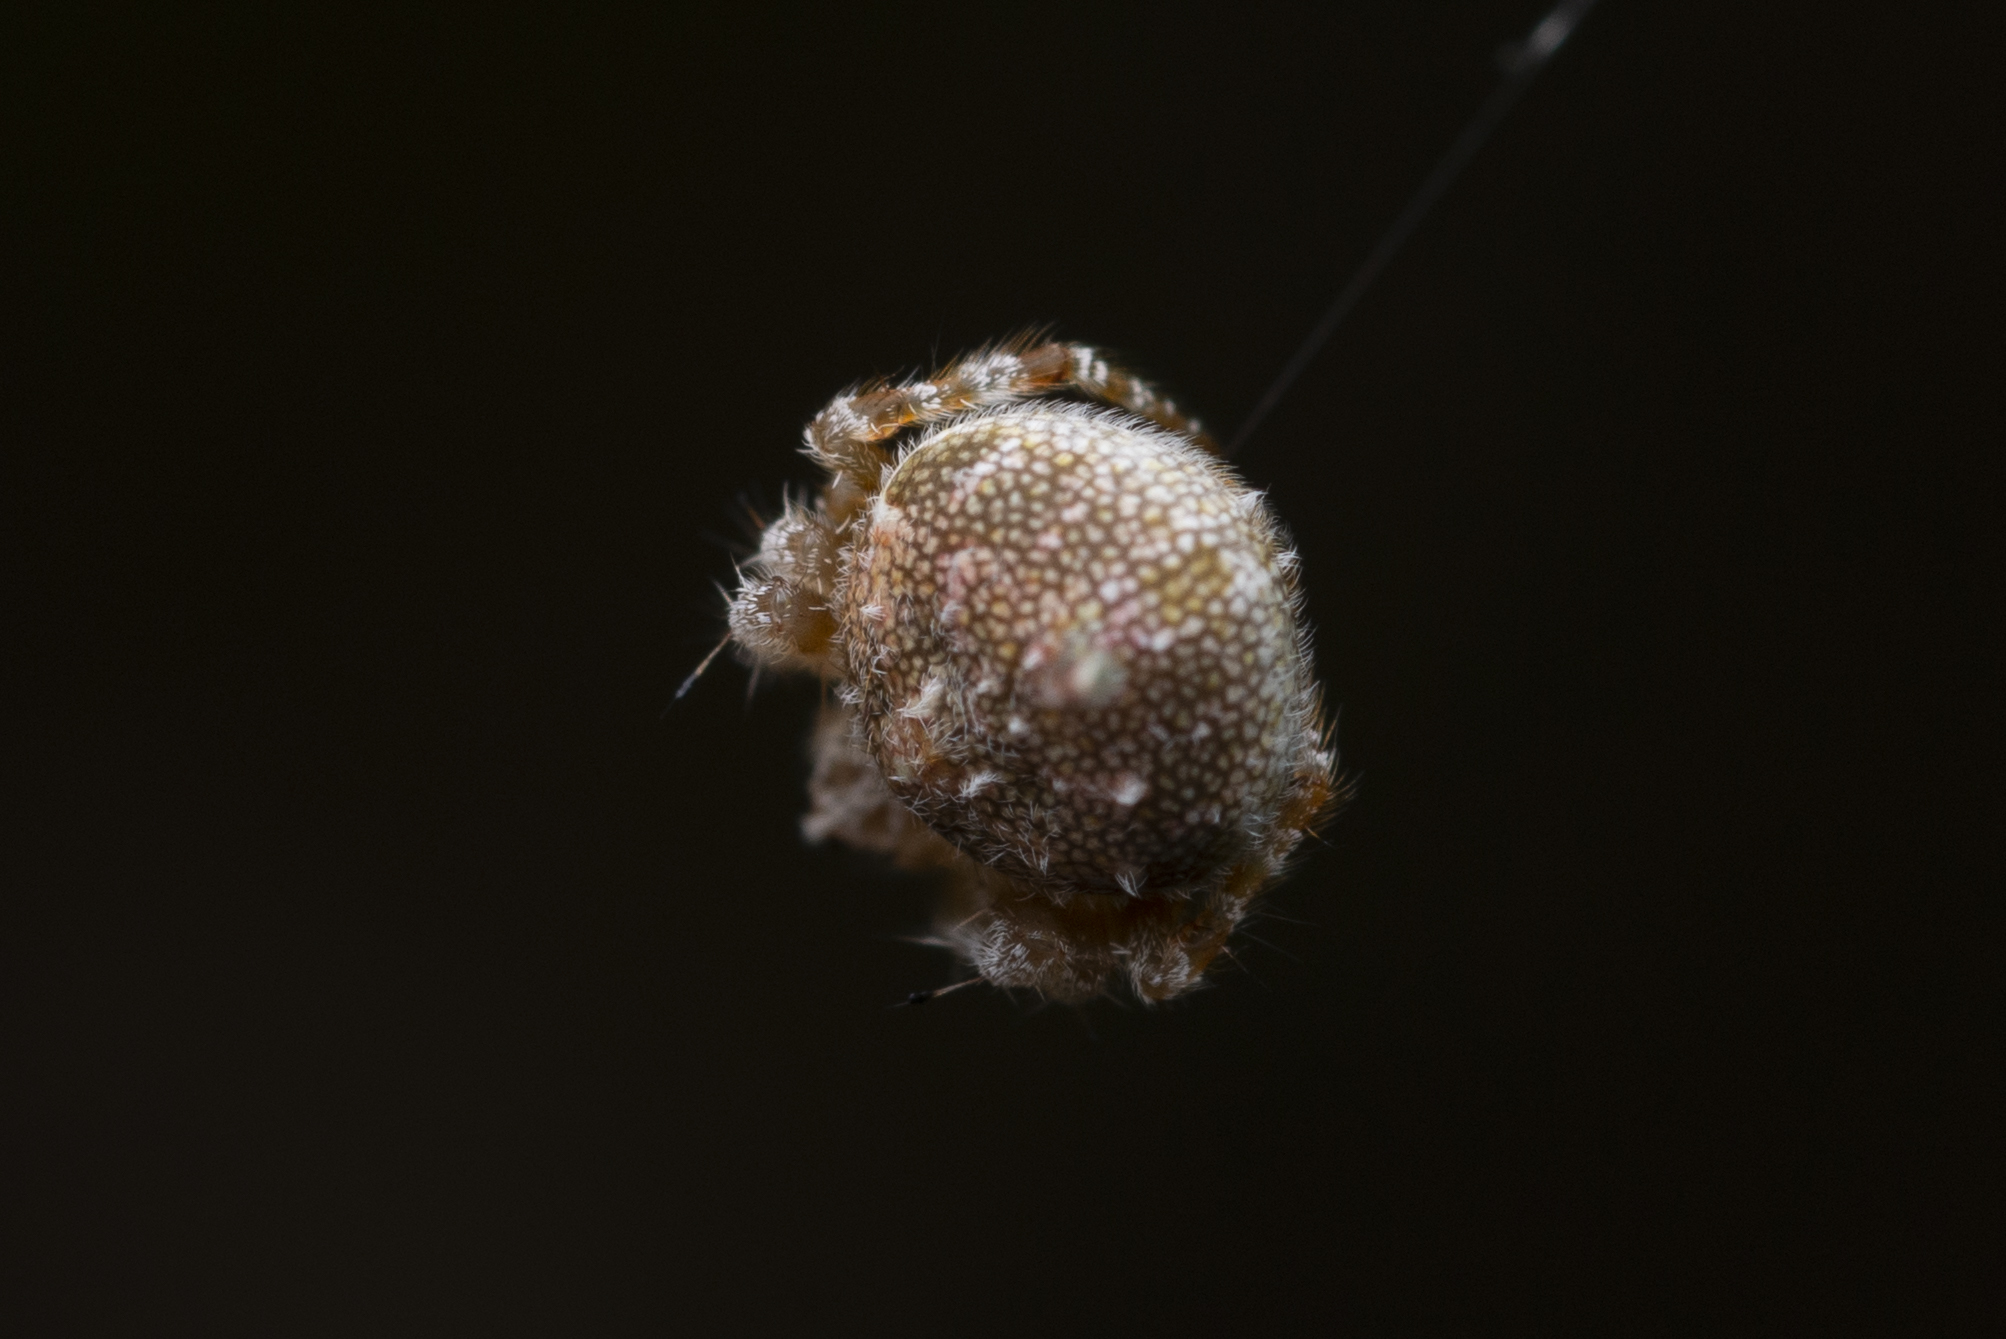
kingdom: Animalia
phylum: Arthropoda
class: Arachnida
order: Araneae
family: Araneidae
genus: Eriovixia
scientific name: Eriovixia laglaizei
